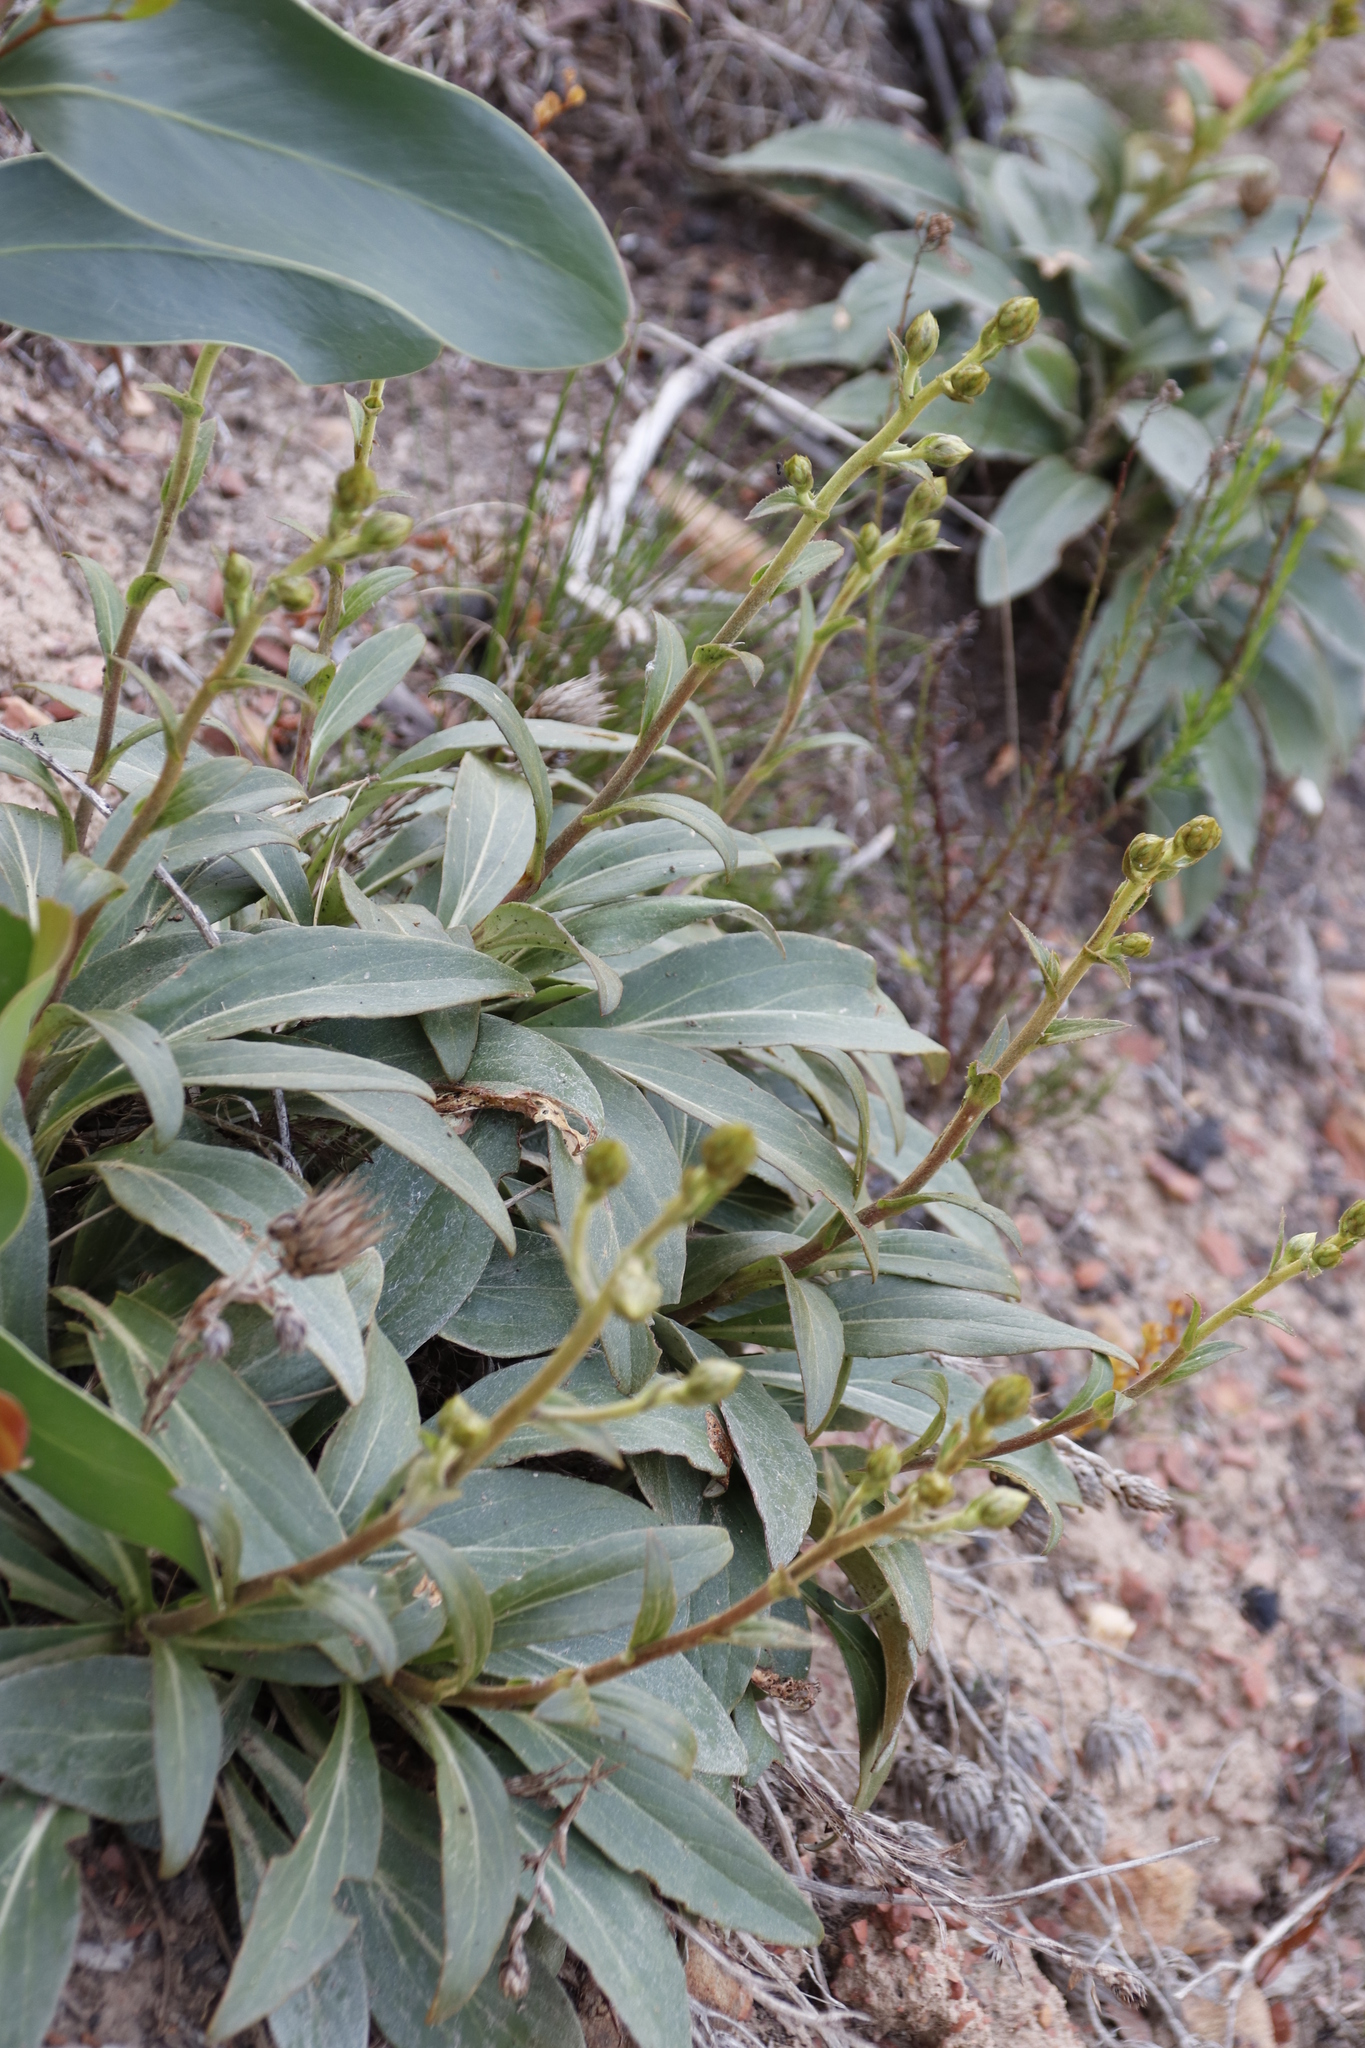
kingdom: Plantae
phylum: Tracheophyta
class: Magnoliopsida
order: Asterales
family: Asteraceae
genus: Berkheya
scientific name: Berkheya herbacea
